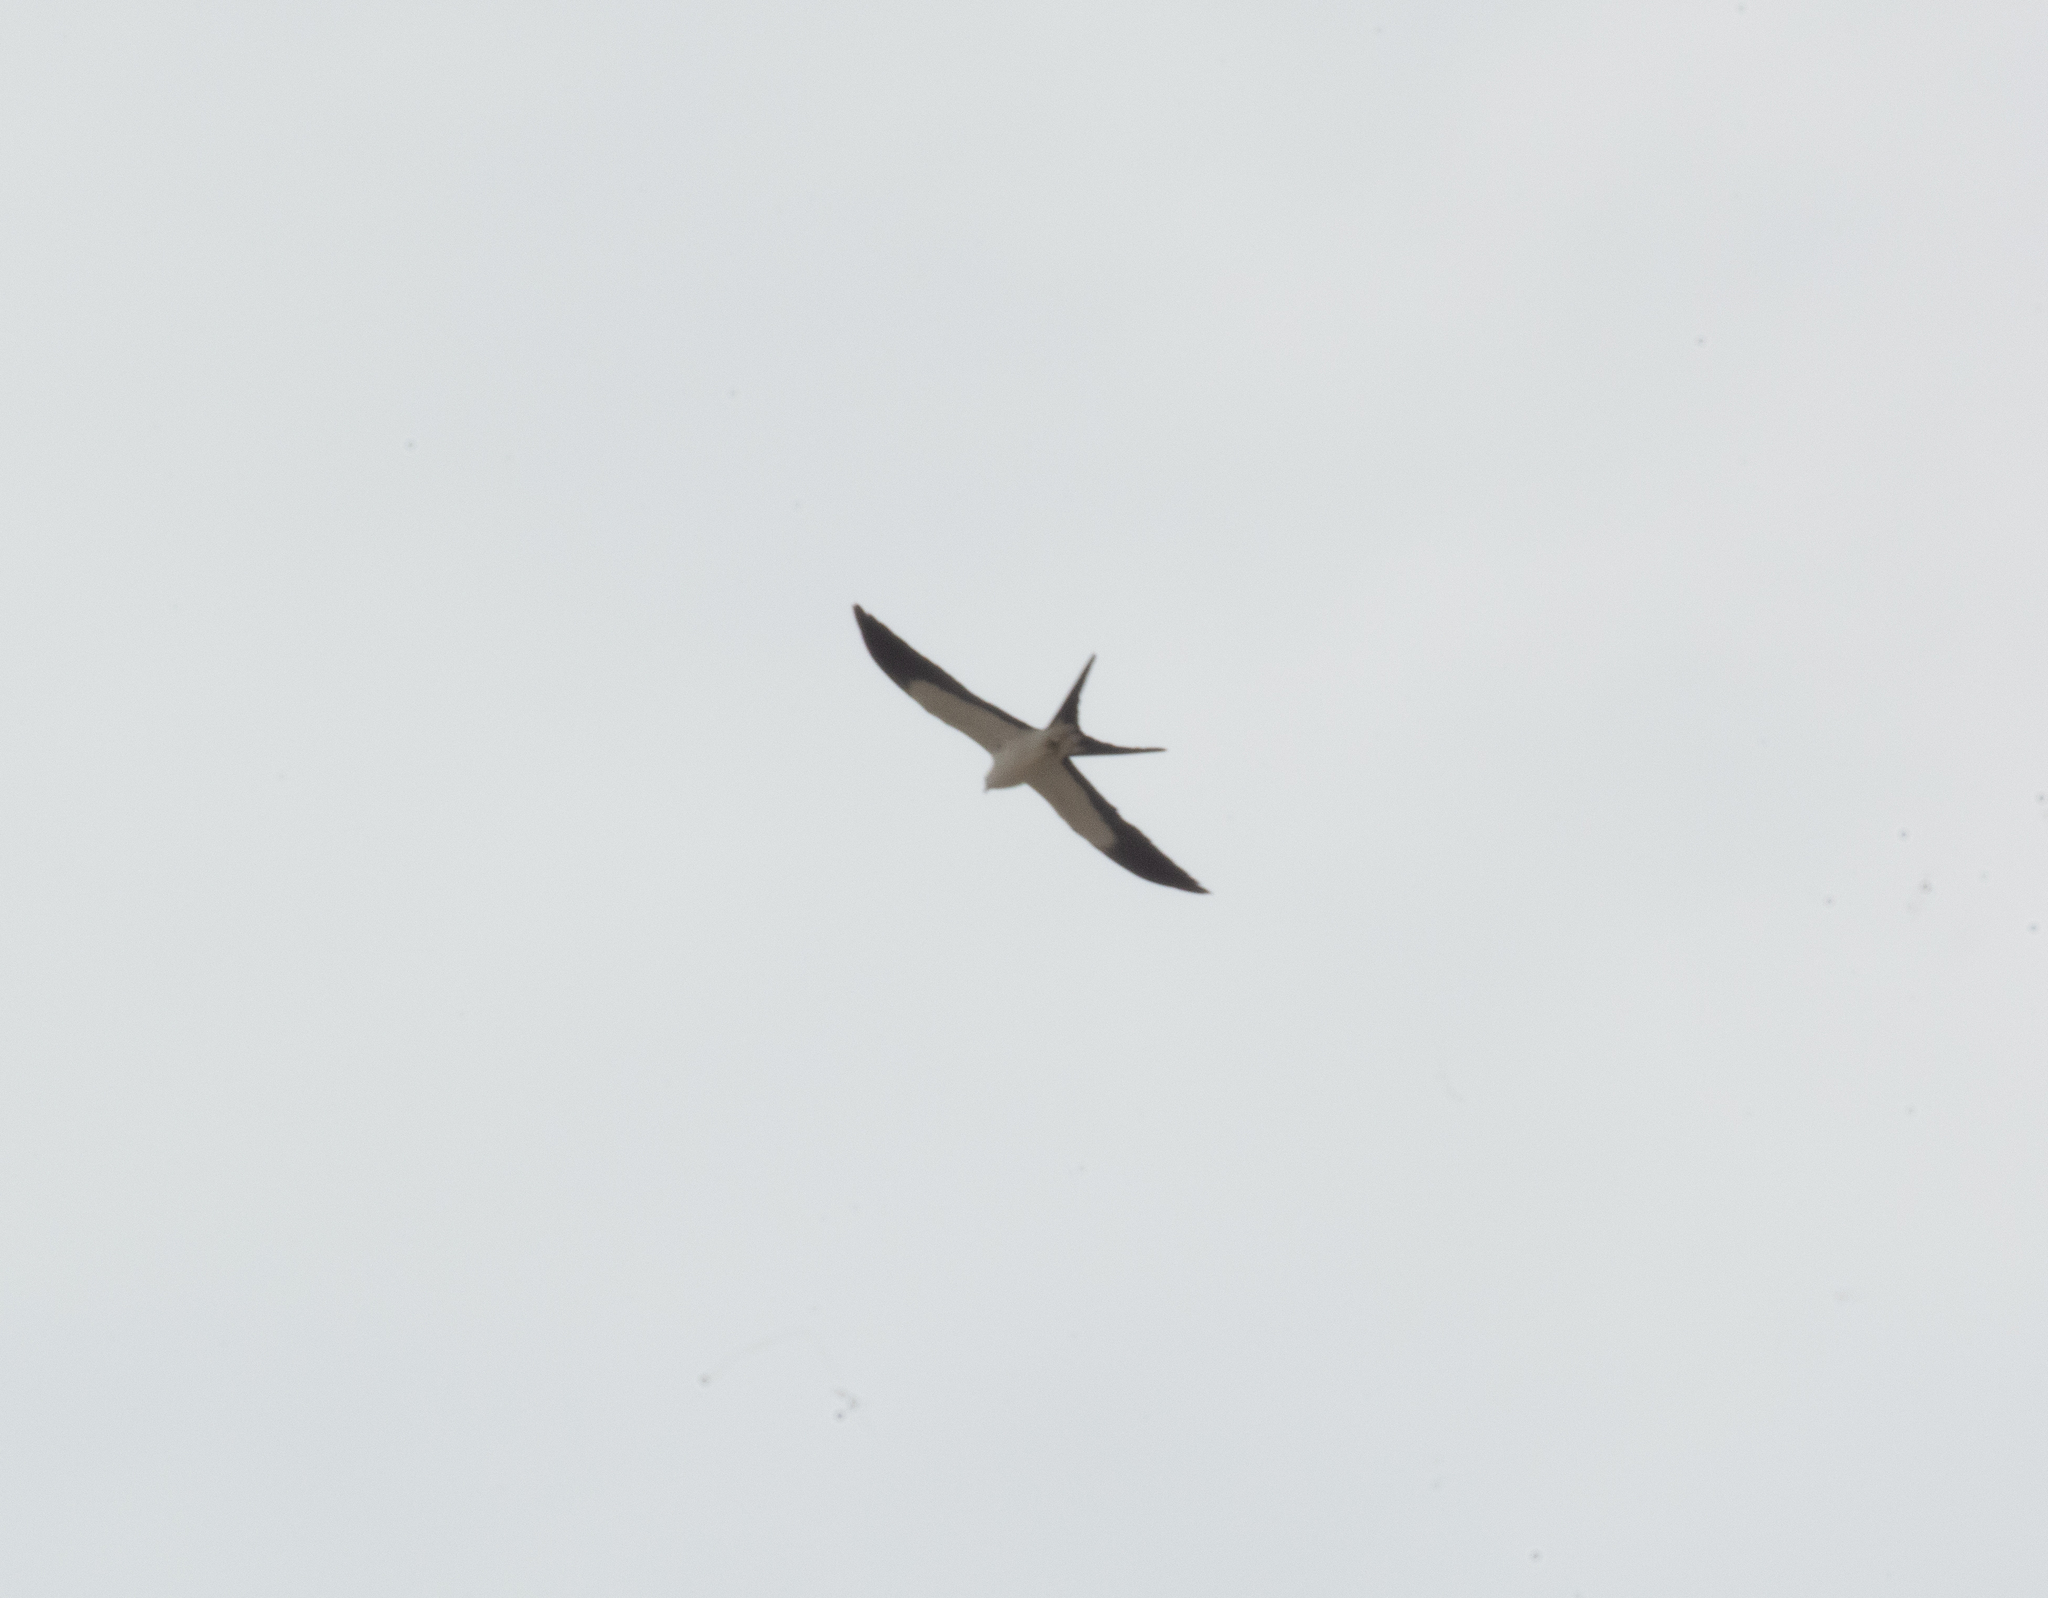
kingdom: Animalia
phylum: Chordata
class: Aves
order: Accipitriformes
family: Accipitridae
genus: Elanoides
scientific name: Elanoides forficatus
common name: Swallow-tailed kite
